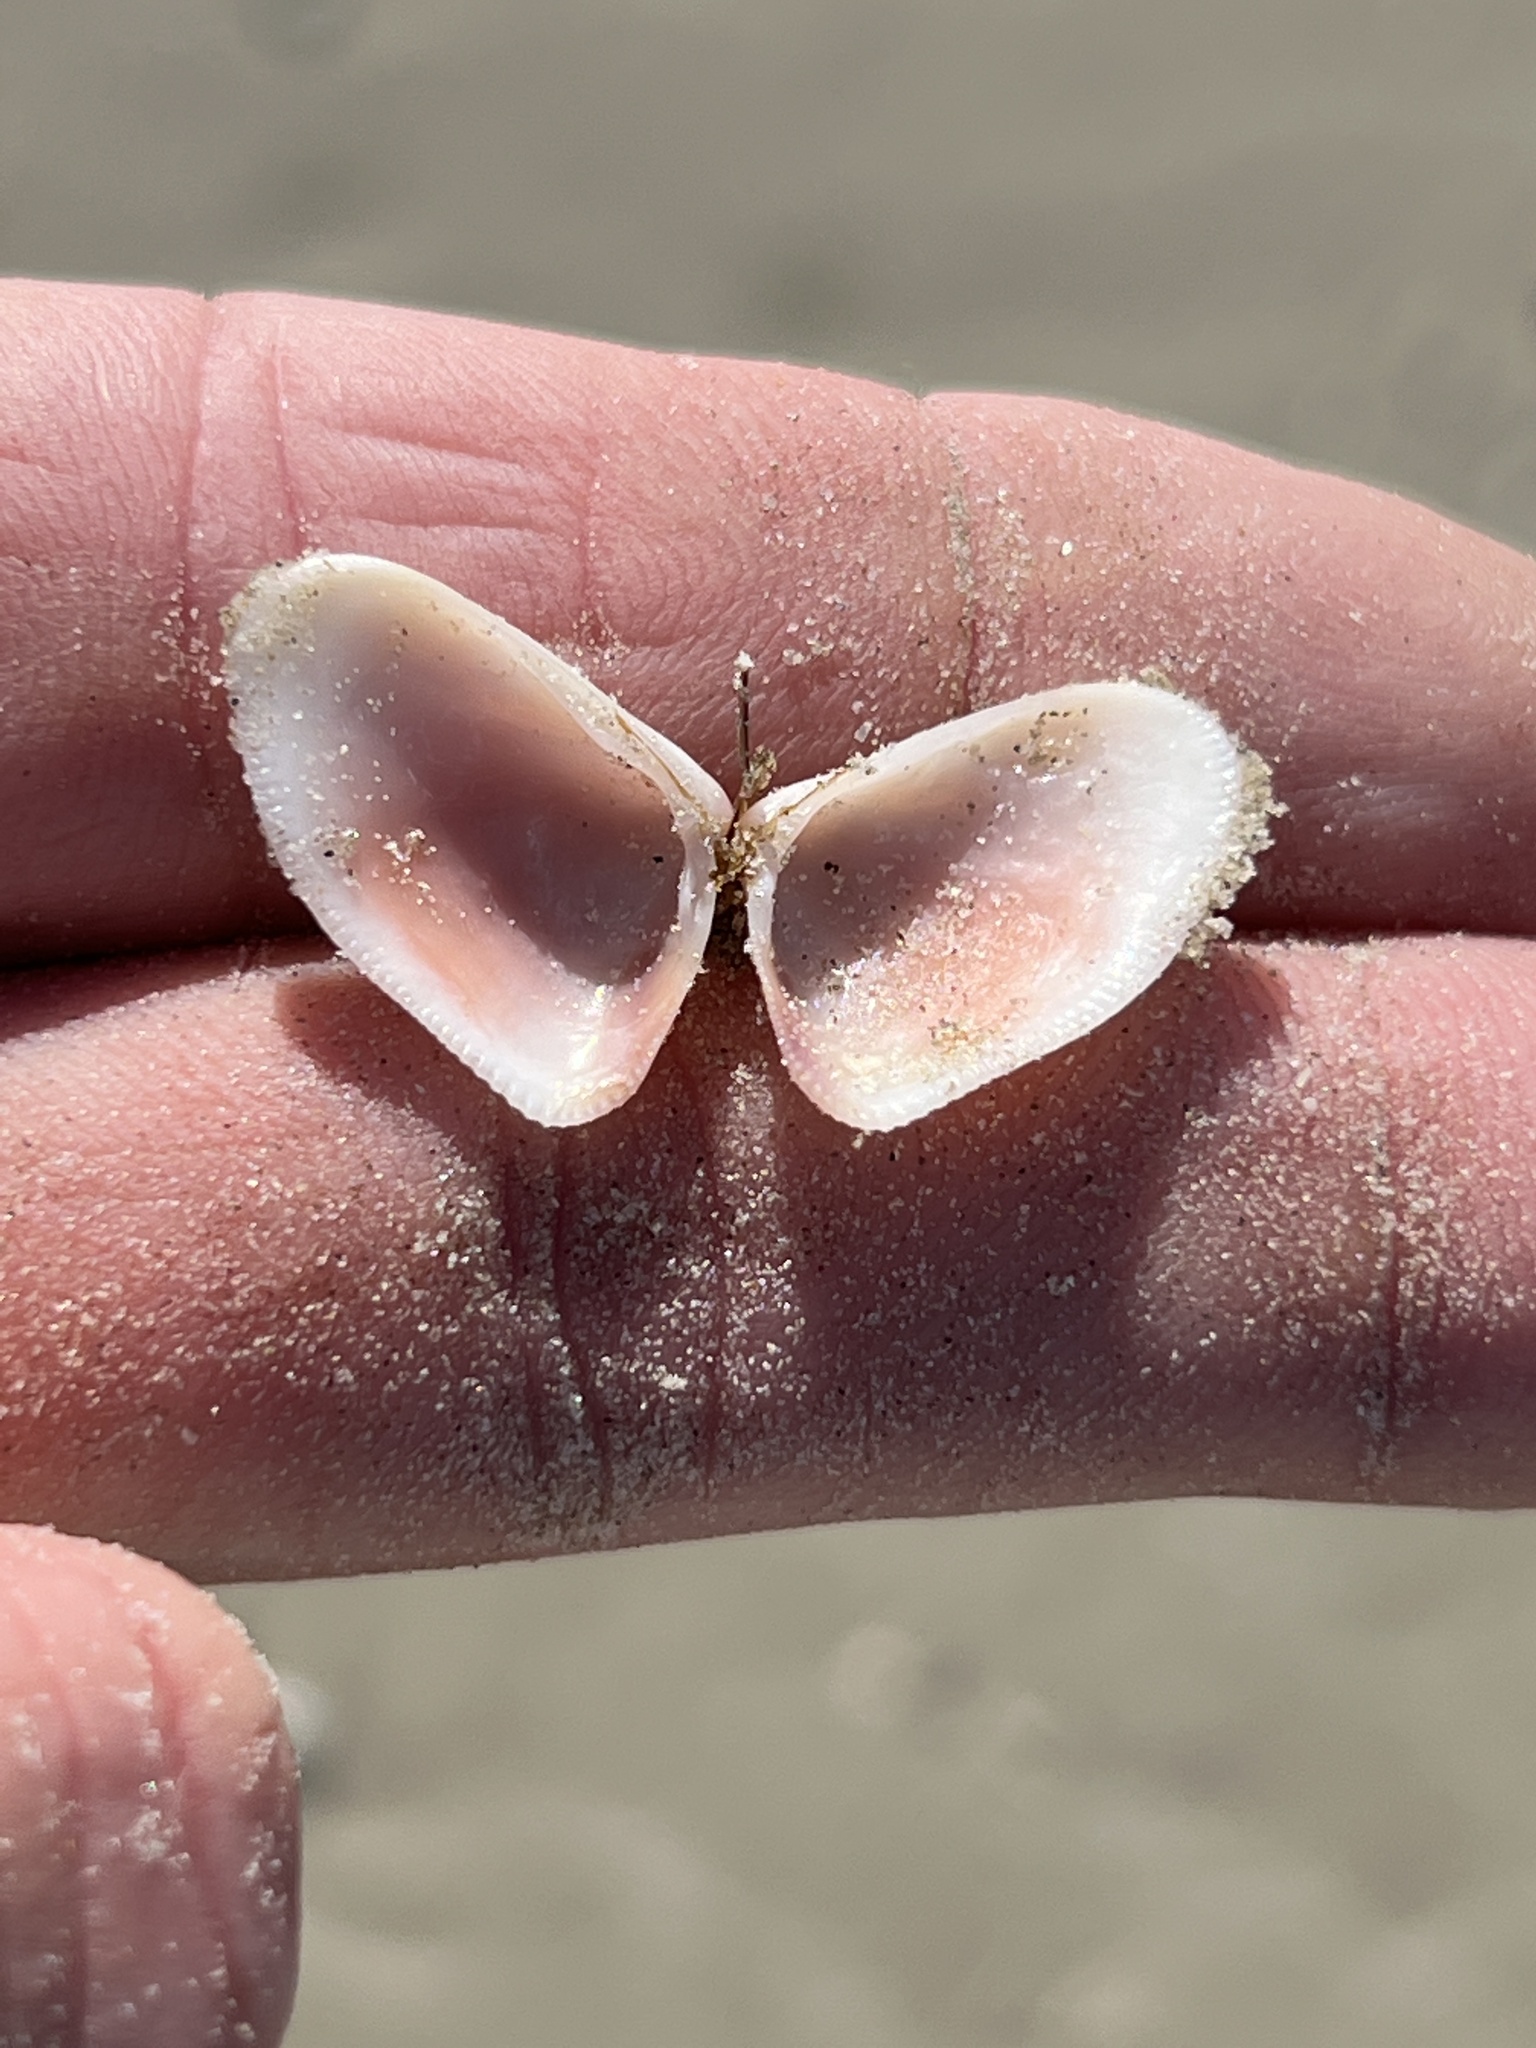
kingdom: Animalia
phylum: Mollusca
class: Bivalvia
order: Cardiida
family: Donacidae
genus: Donax
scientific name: Donax variabilis
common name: Butterfly shell
